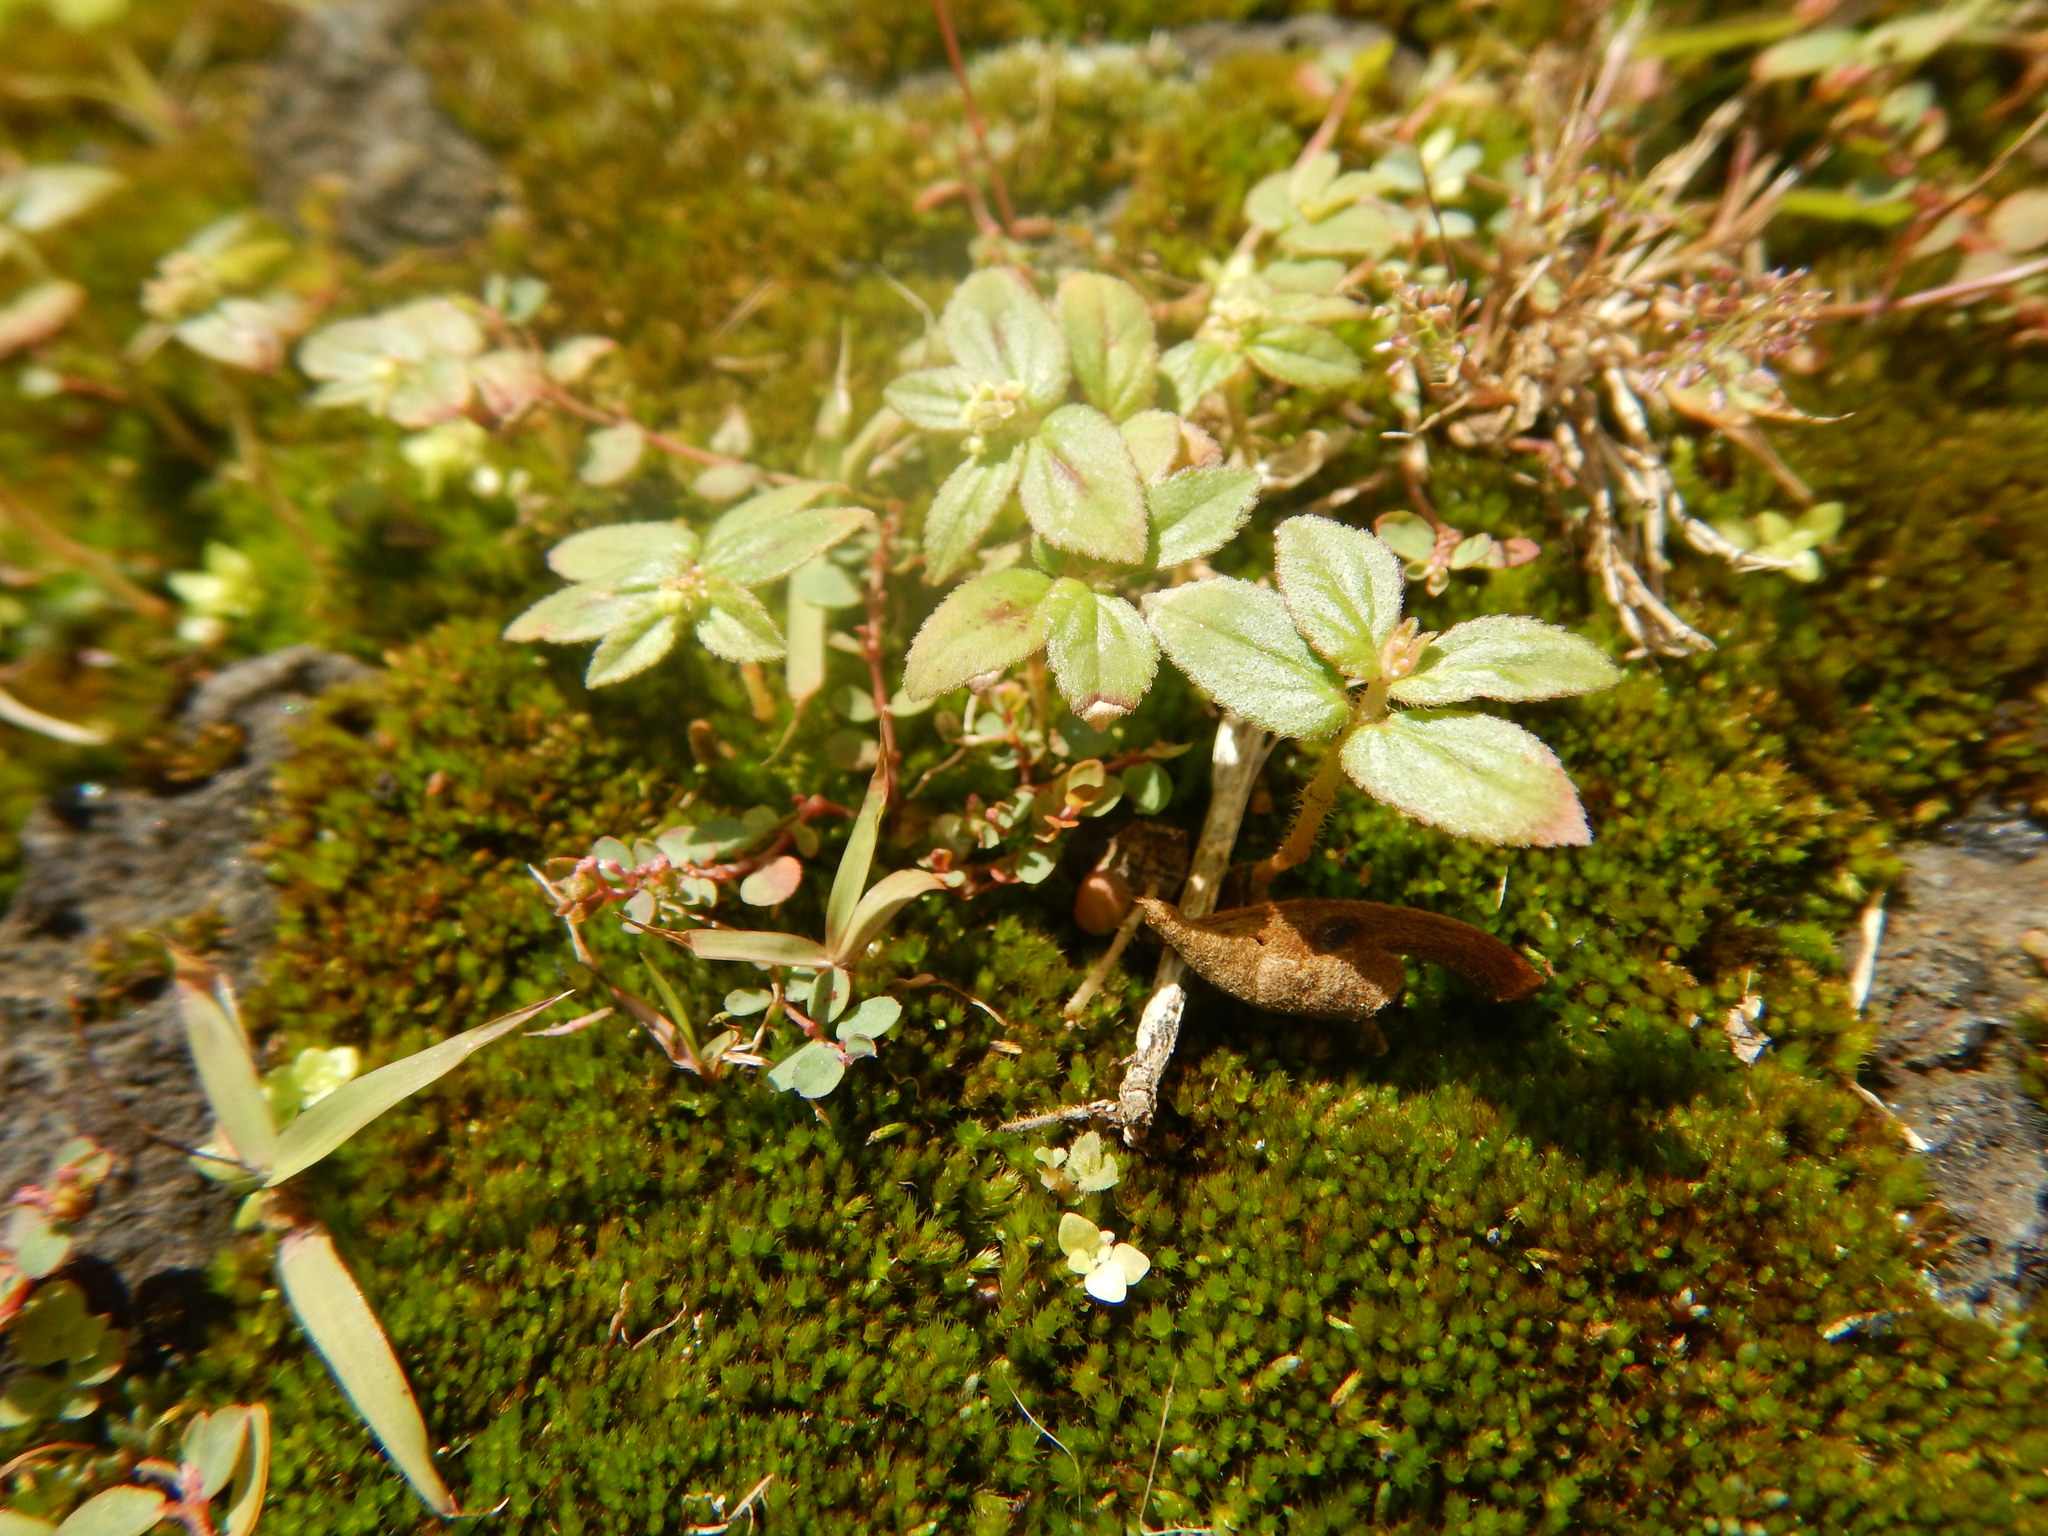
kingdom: Plantae
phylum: Tracheophyta
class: Magnoliopsida
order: Malpighiales
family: Euphorbiaceae
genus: Euphorbia
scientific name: Euphorbia hirta
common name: Pillpod sandmat
